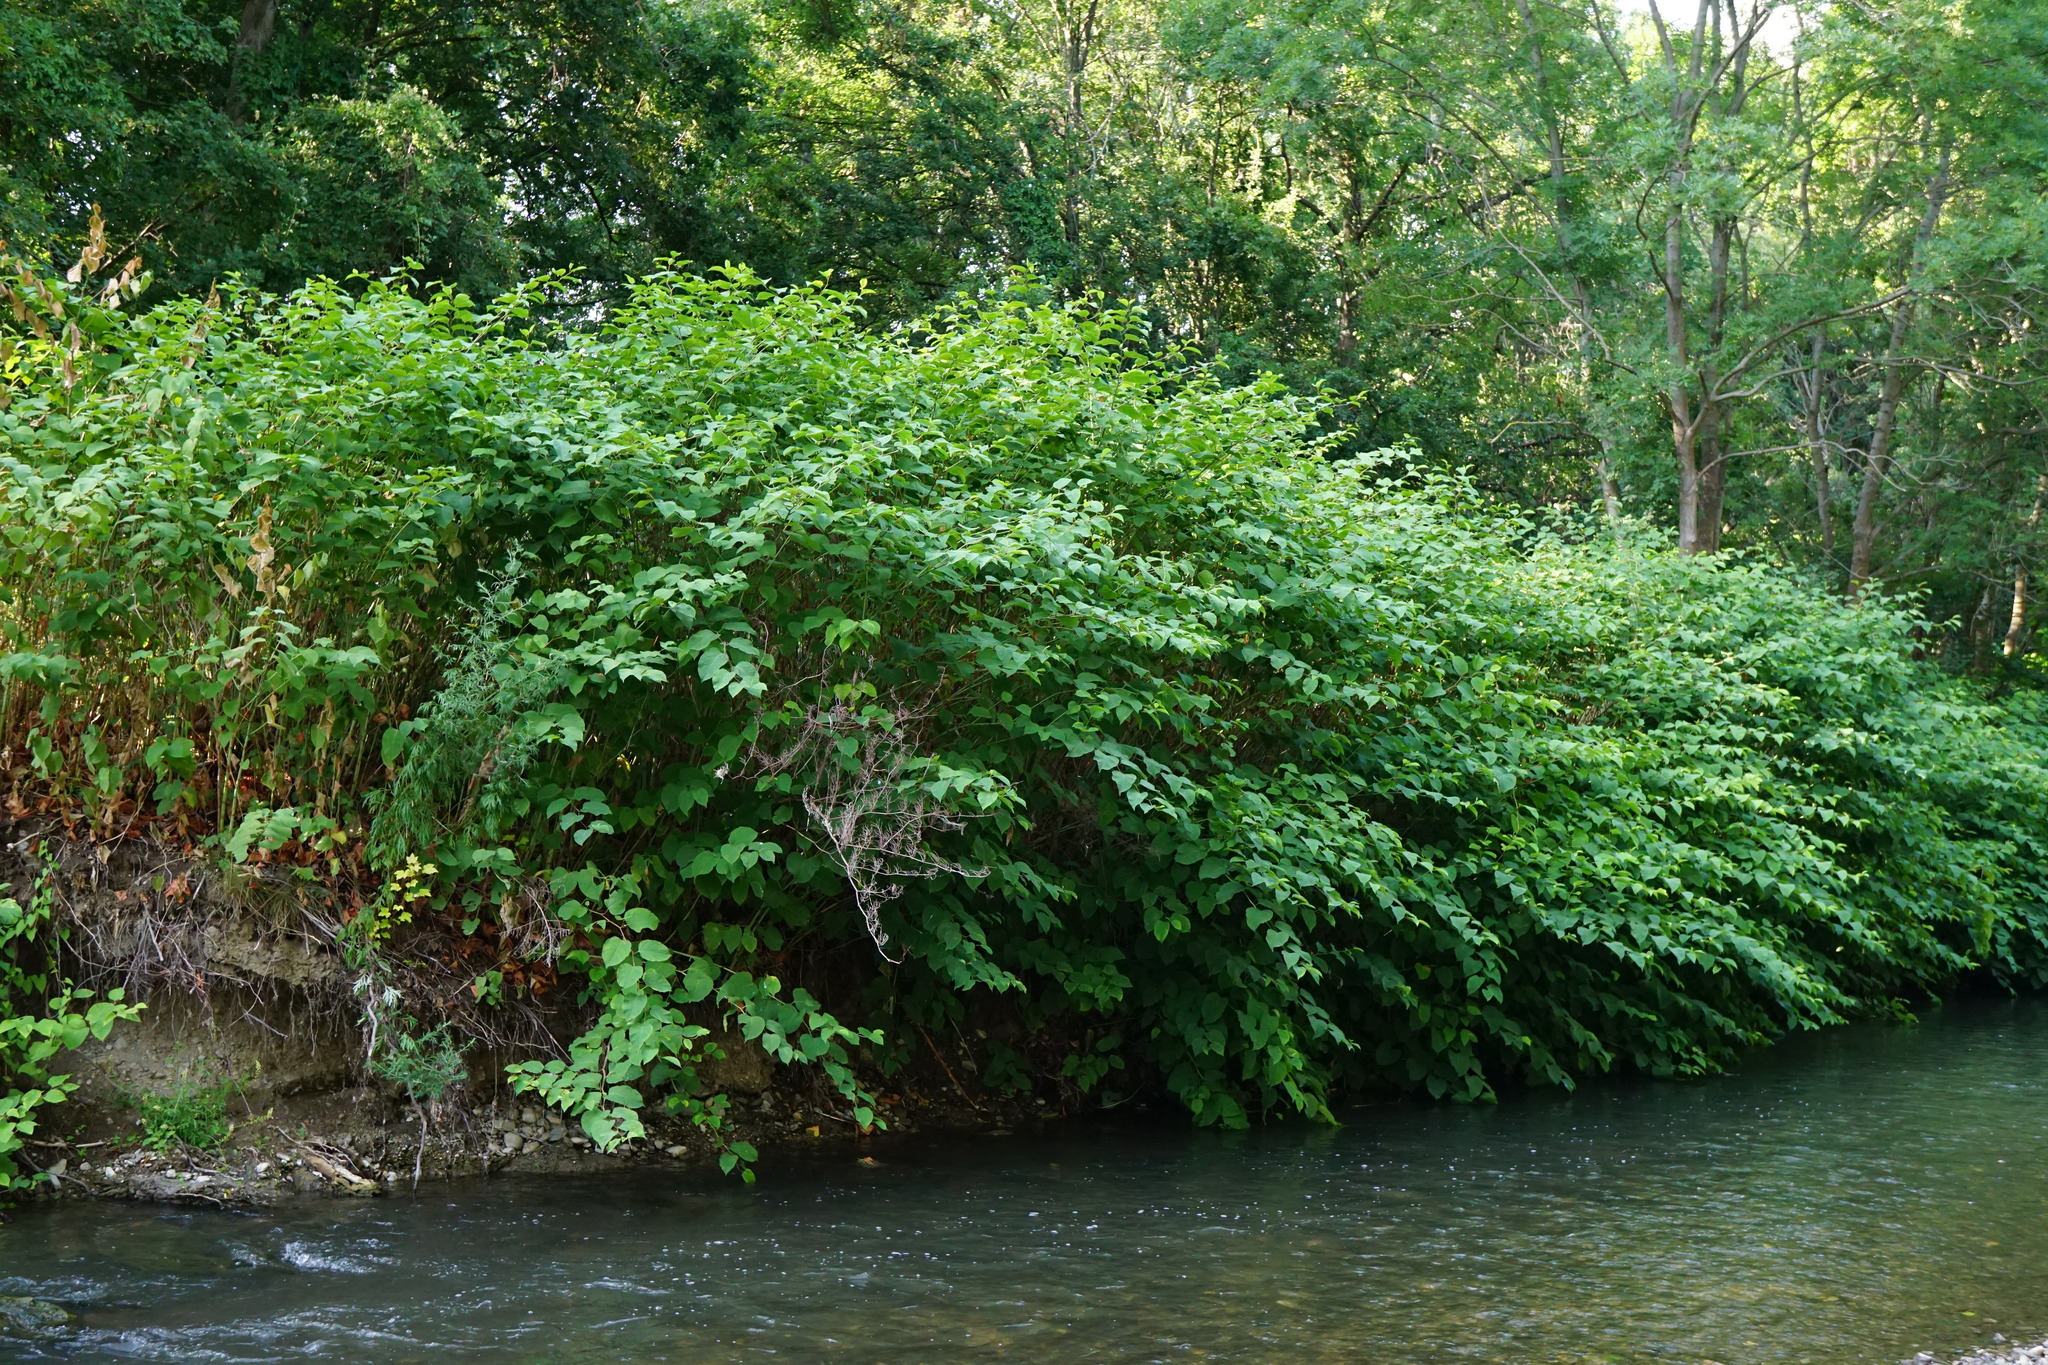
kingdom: Plantae
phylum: Tracheophyta
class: Magnoliopsida
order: Caryophyllales
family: Polygonaceae
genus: Reynoutria
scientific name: Reynoutria bohemica
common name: Bohemian knotweed
